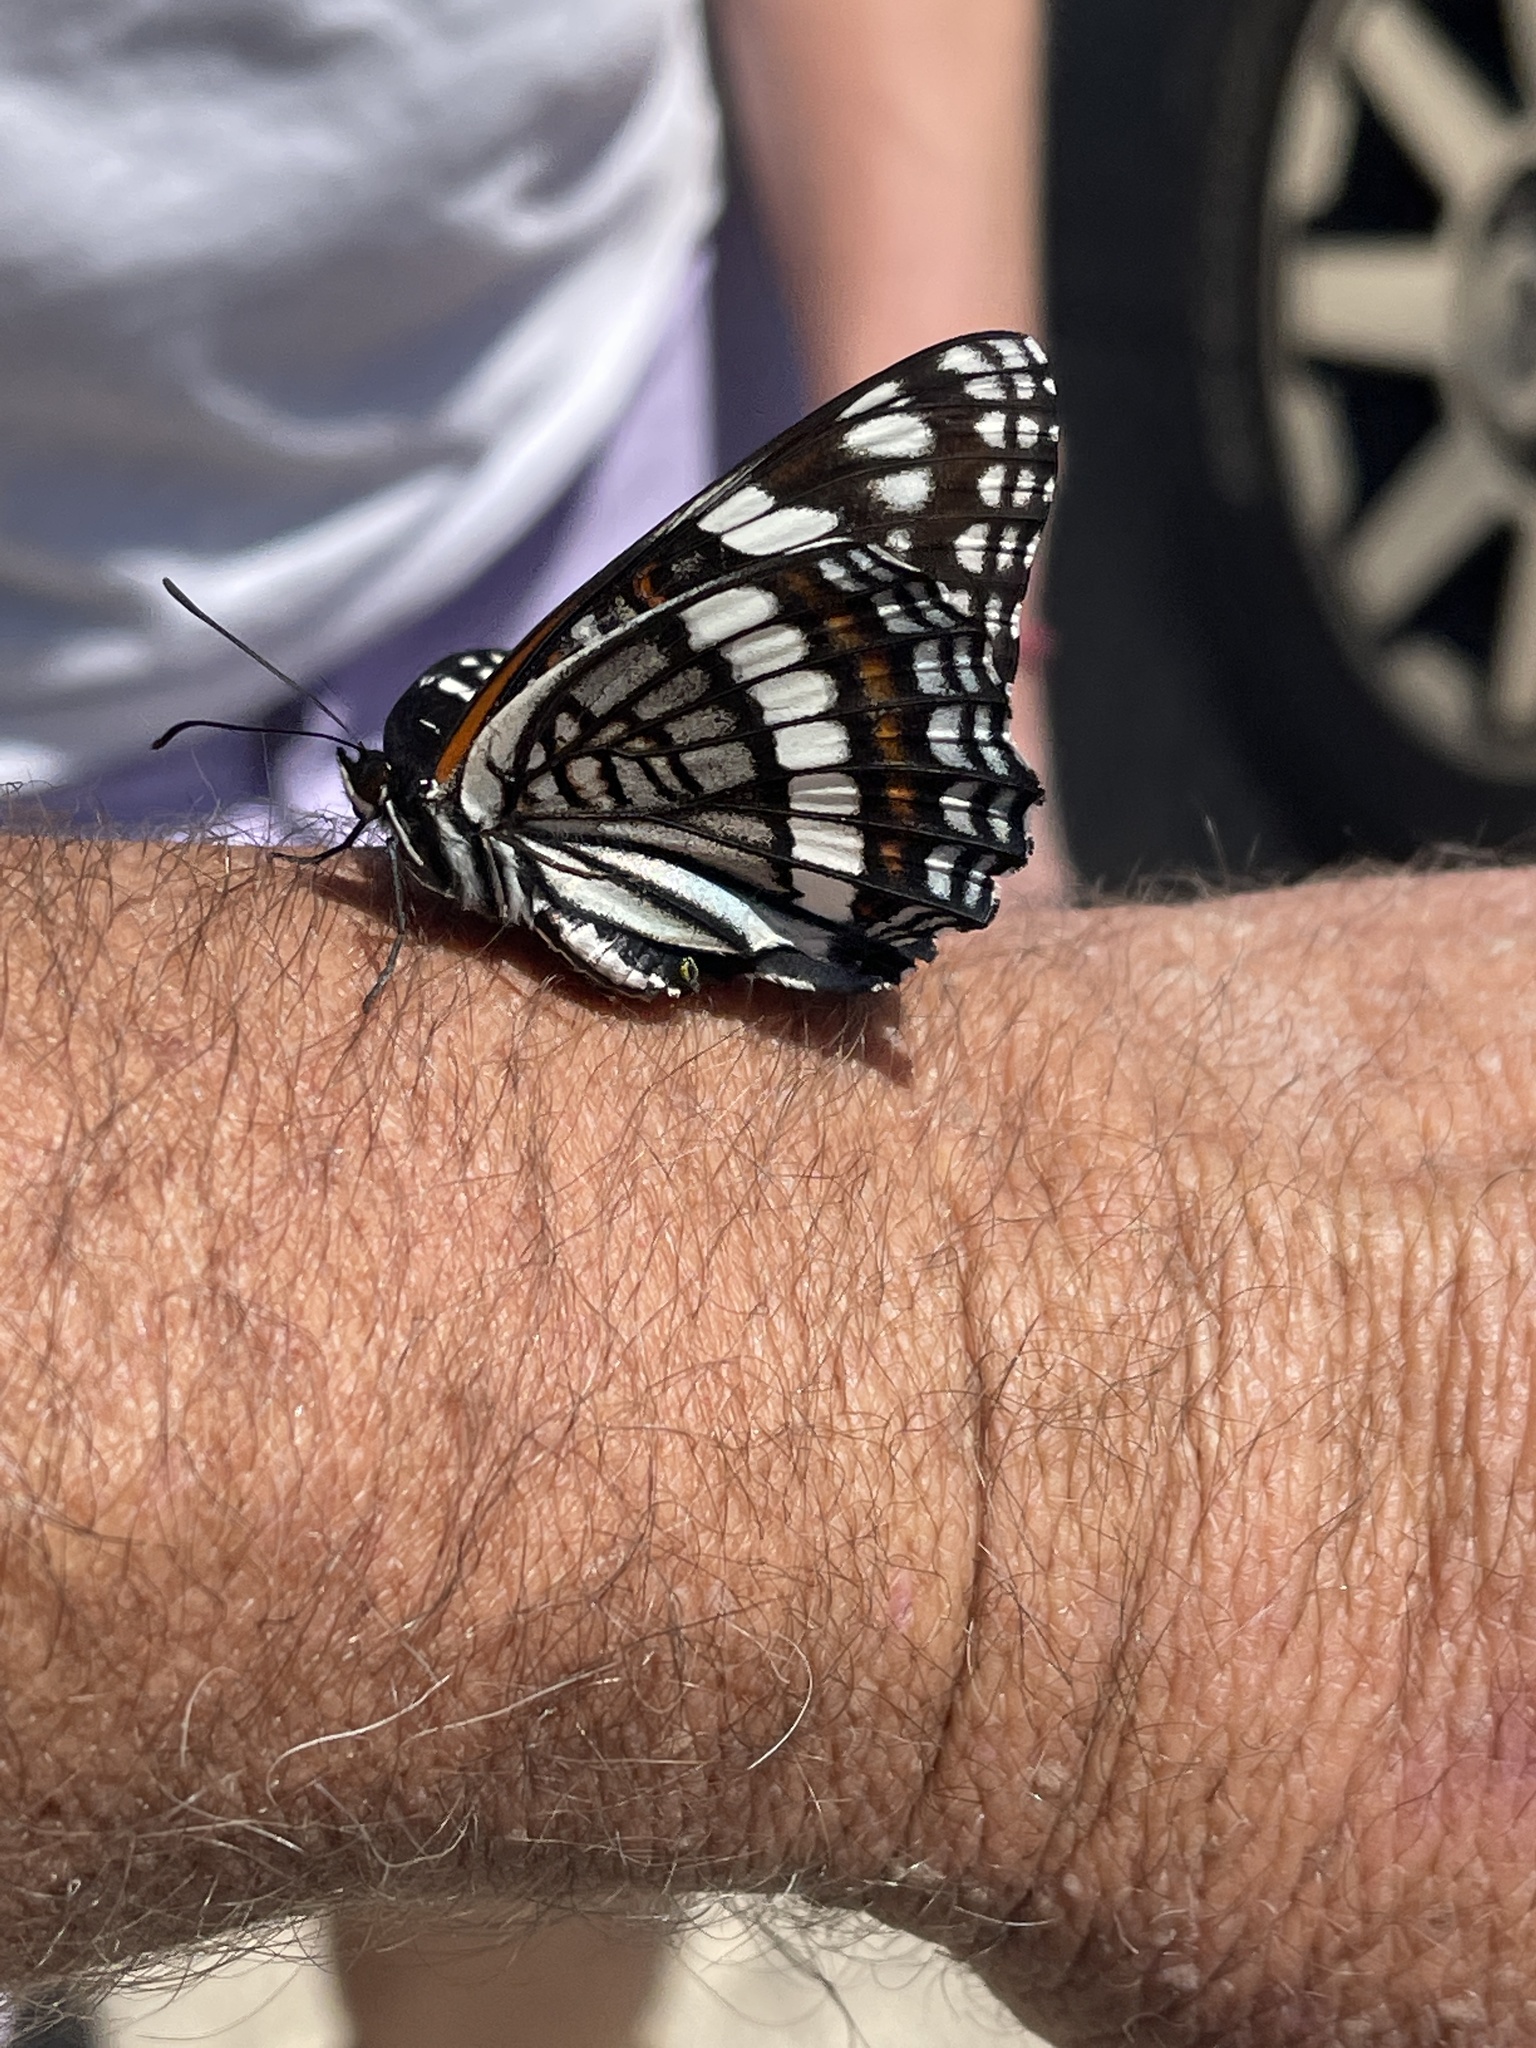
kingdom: Animalia
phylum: Arthropoda
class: Insecta
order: Lepidoptera
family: Nymphalidae
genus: Limenitis
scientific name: Limenitis weidemeyerii
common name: Weidemeyer's admiral
